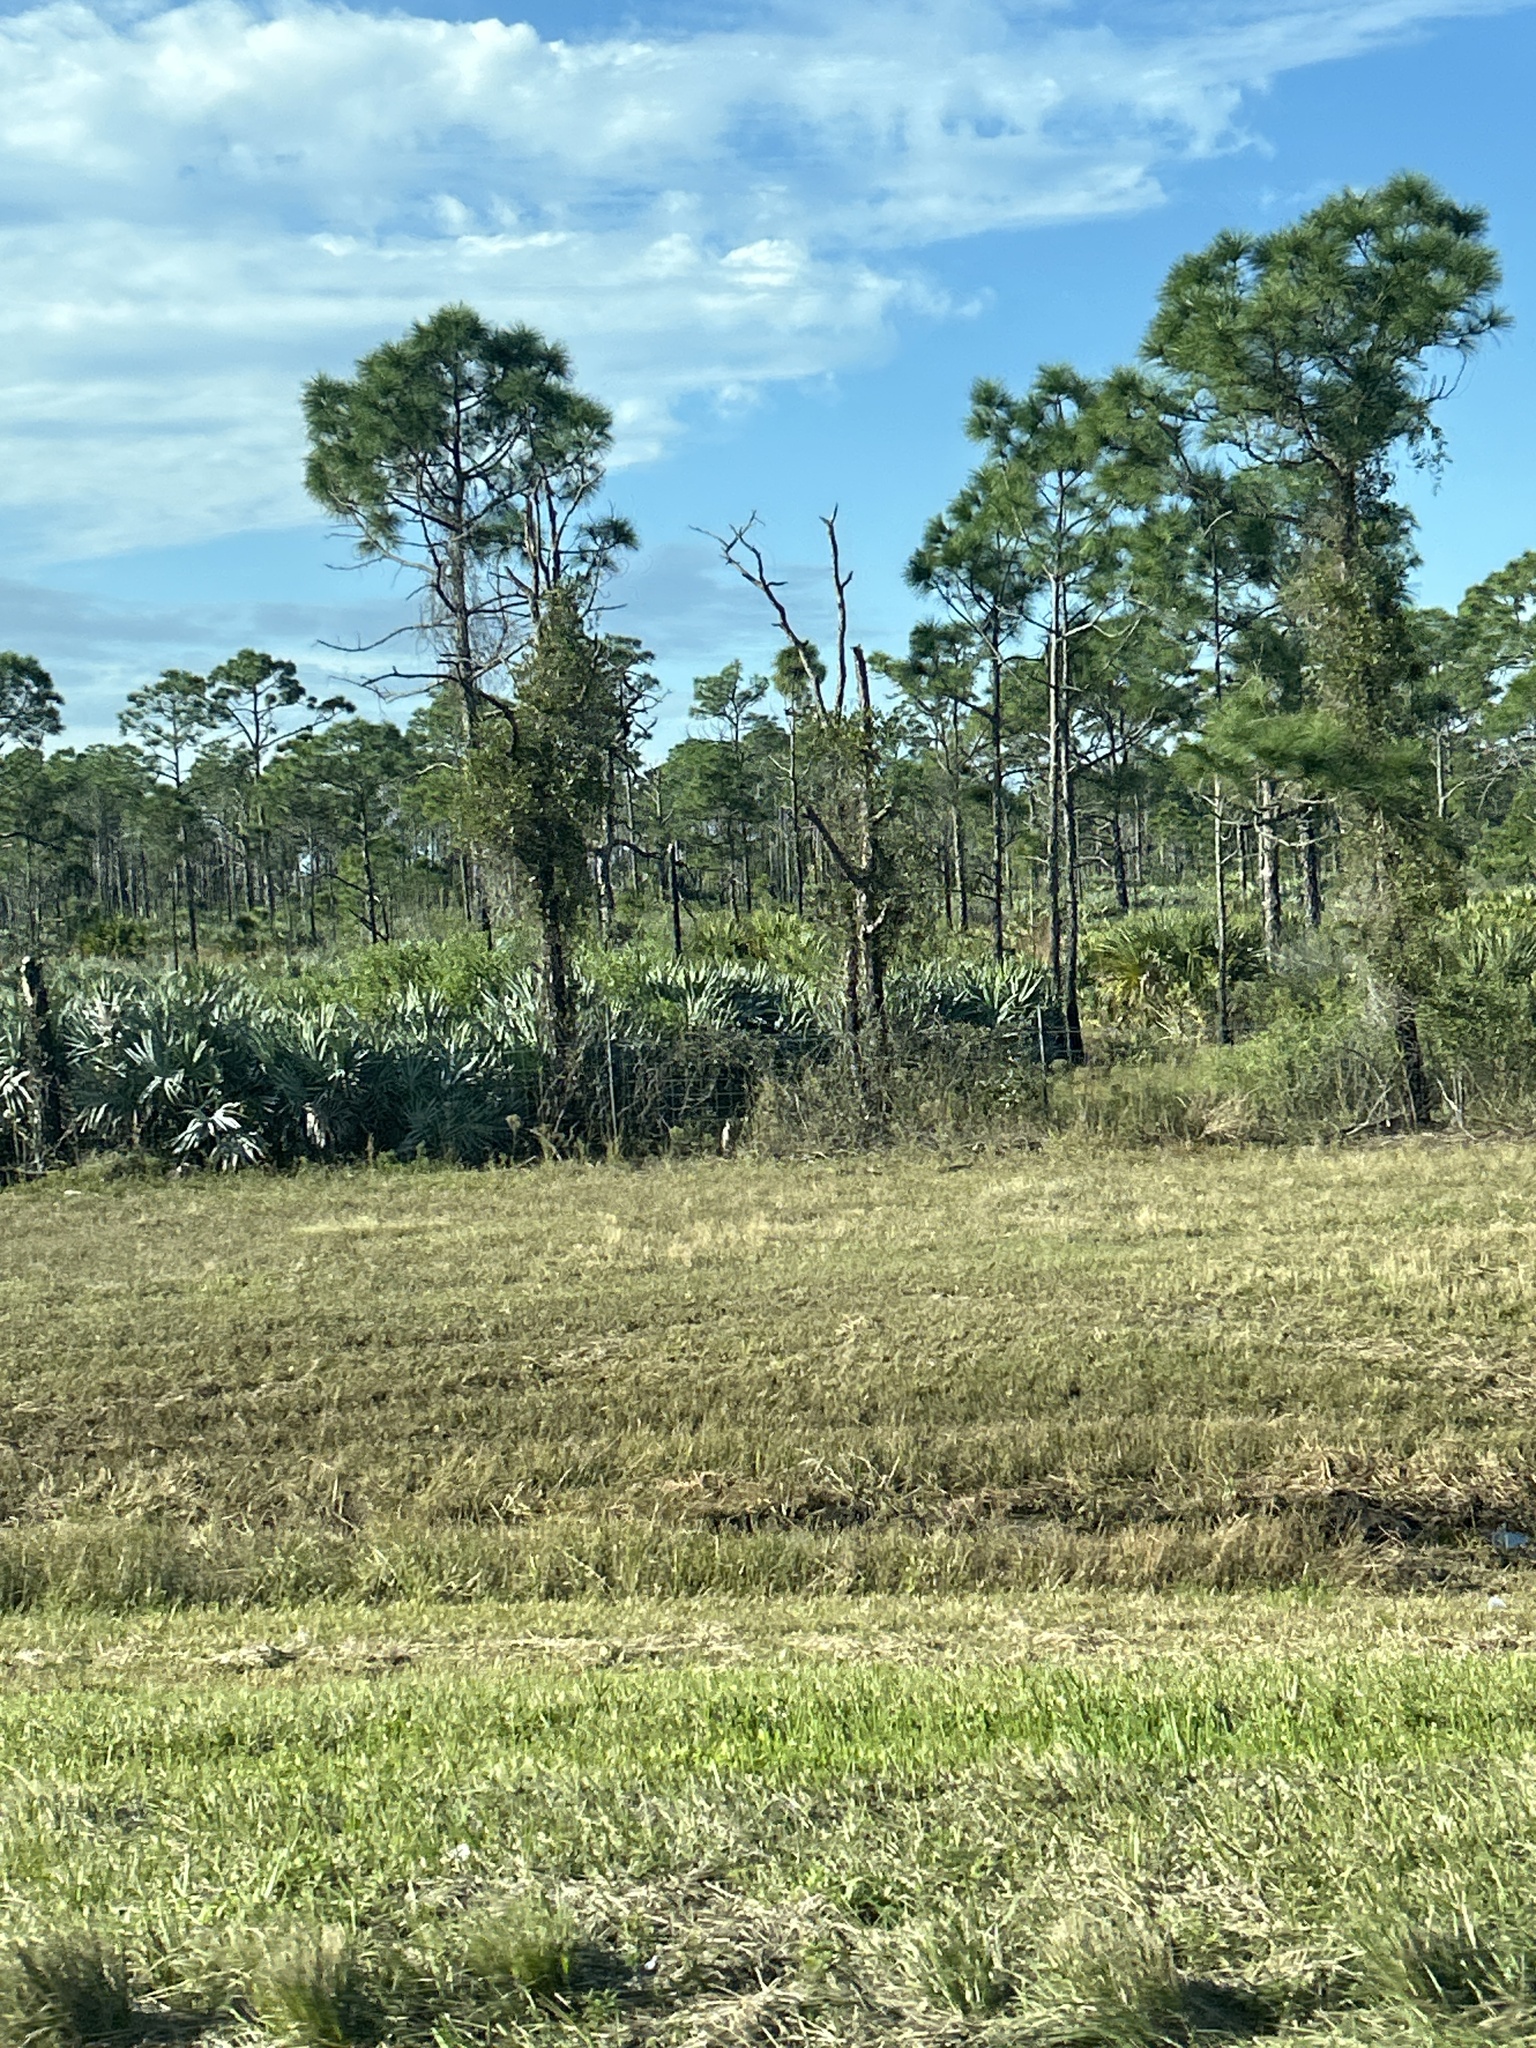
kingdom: Plantae
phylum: Tracheophyta
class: Pinopsida
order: Pinales
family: Pinaceae
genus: Pinus
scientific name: Pinus elliottii
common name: Slash pine
